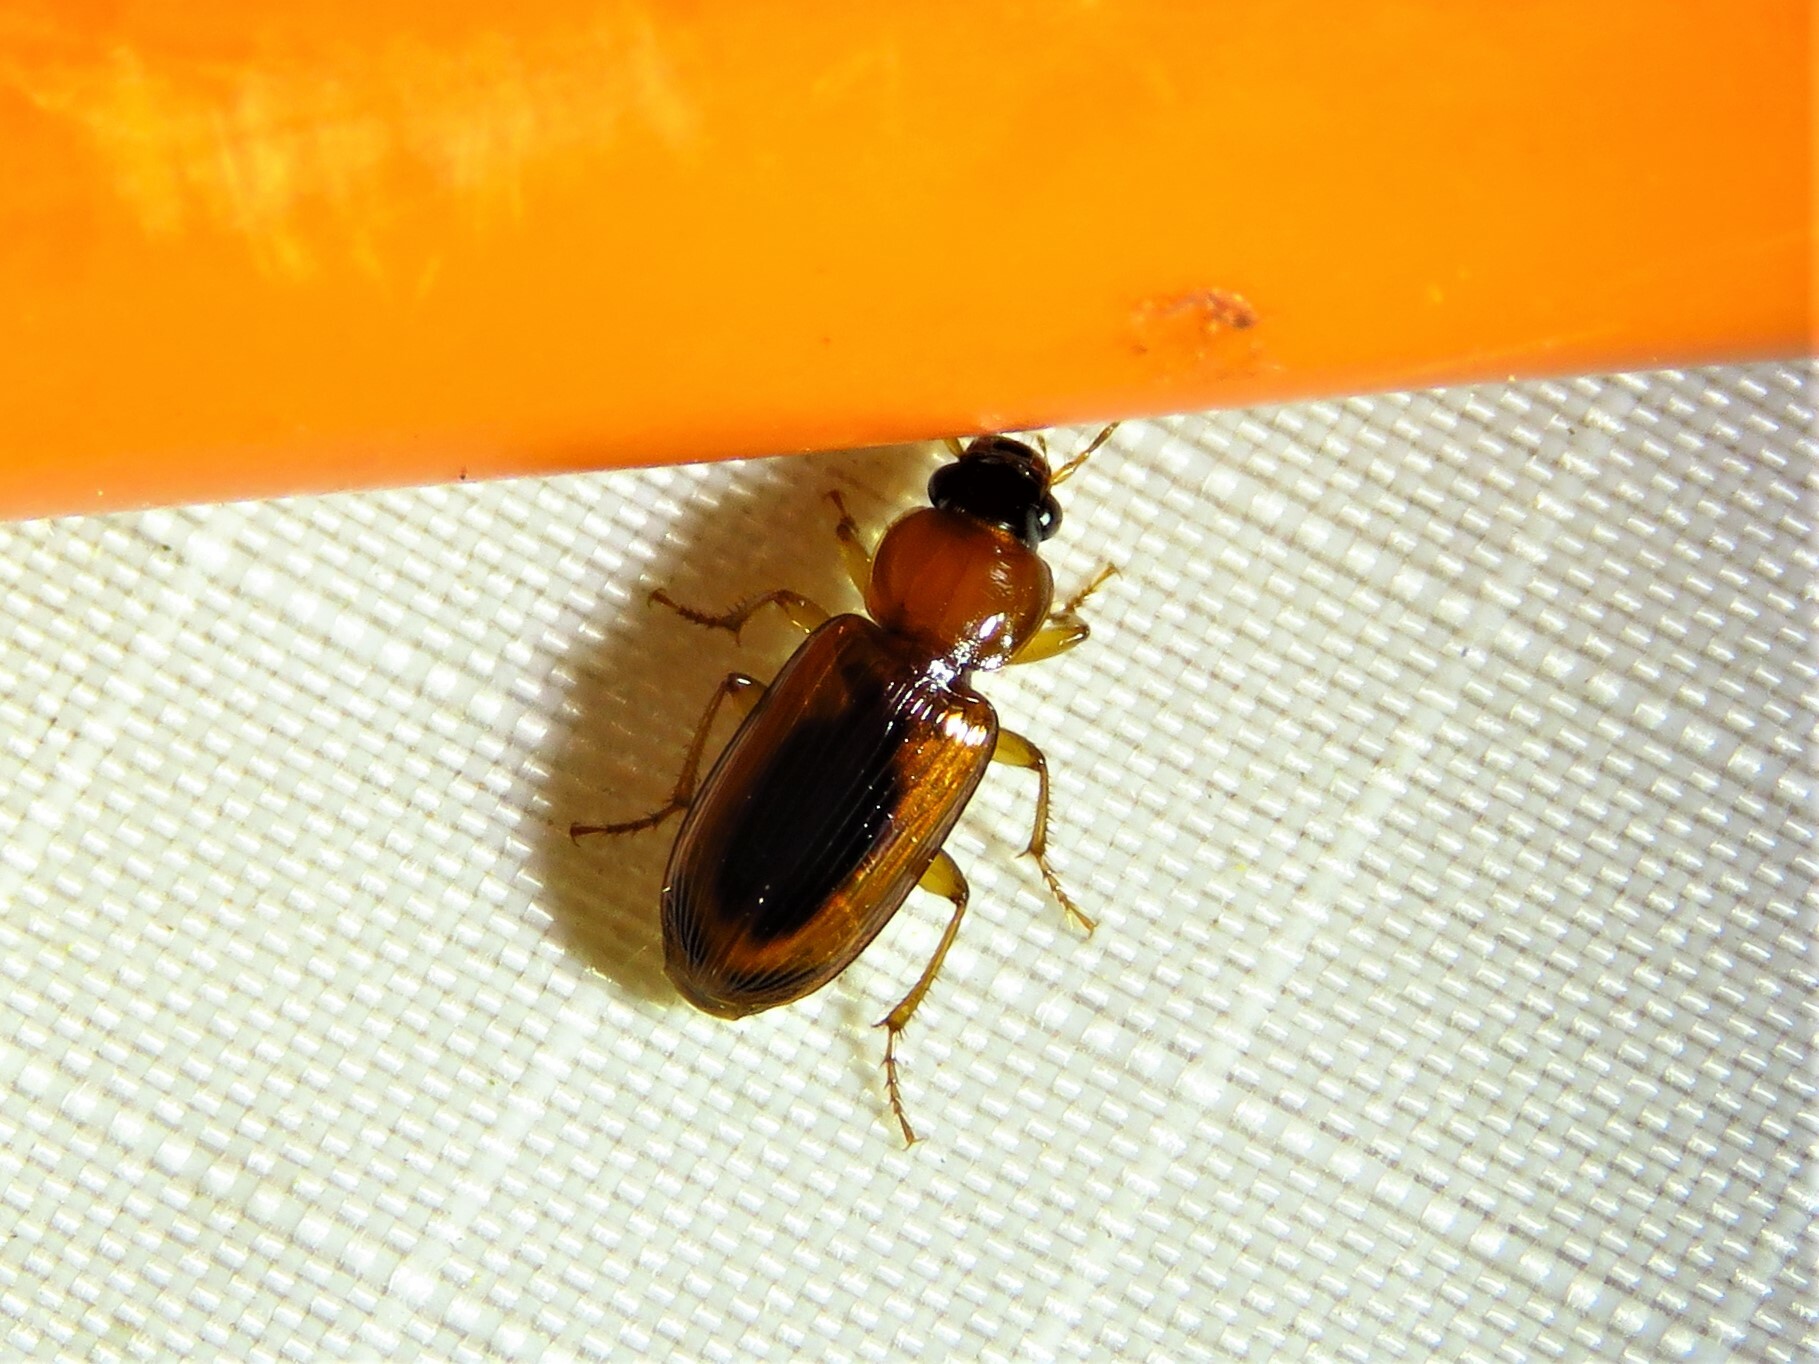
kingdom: Animalia
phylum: Arthropoda
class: Insecta
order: Coleoptera
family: Carabidae
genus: Stenolophus
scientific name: Stenolophus dissimilis
